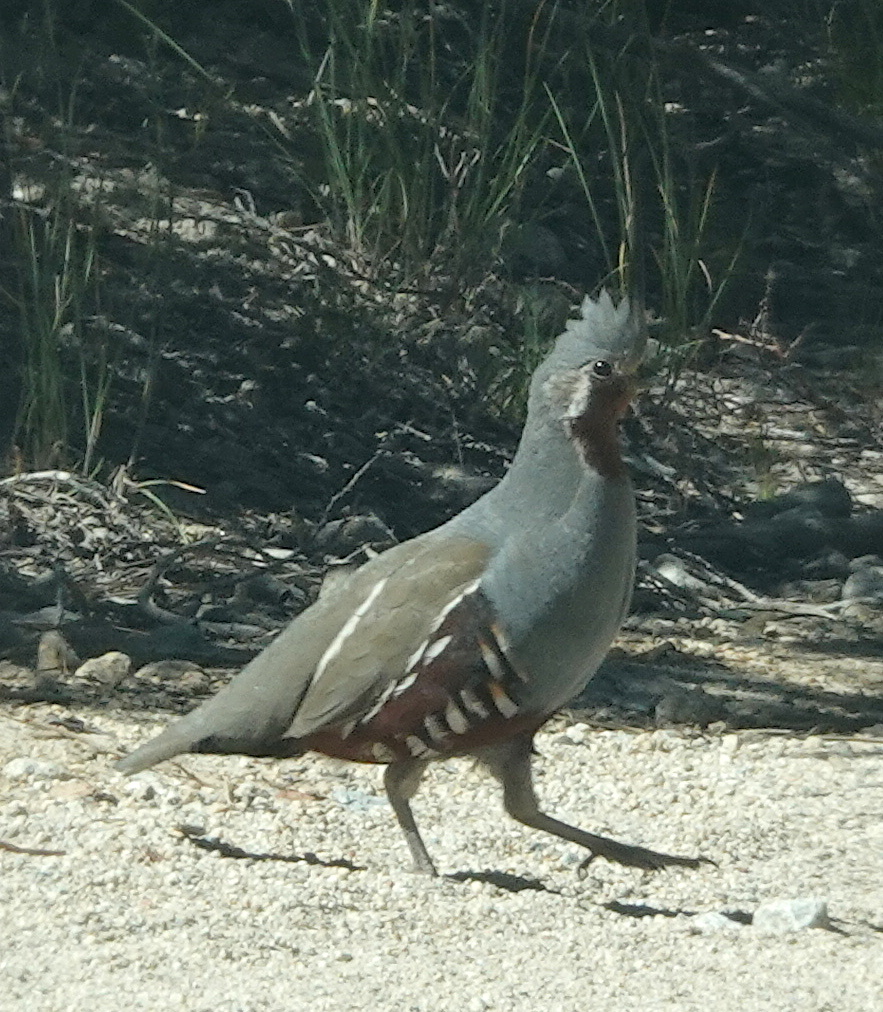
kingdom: Animalia
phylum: Chordata
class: Aves
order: Galliformes
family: Odontophoridae
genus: Oreortyx
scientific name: Oreortyx pictus
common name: Mountain quail
